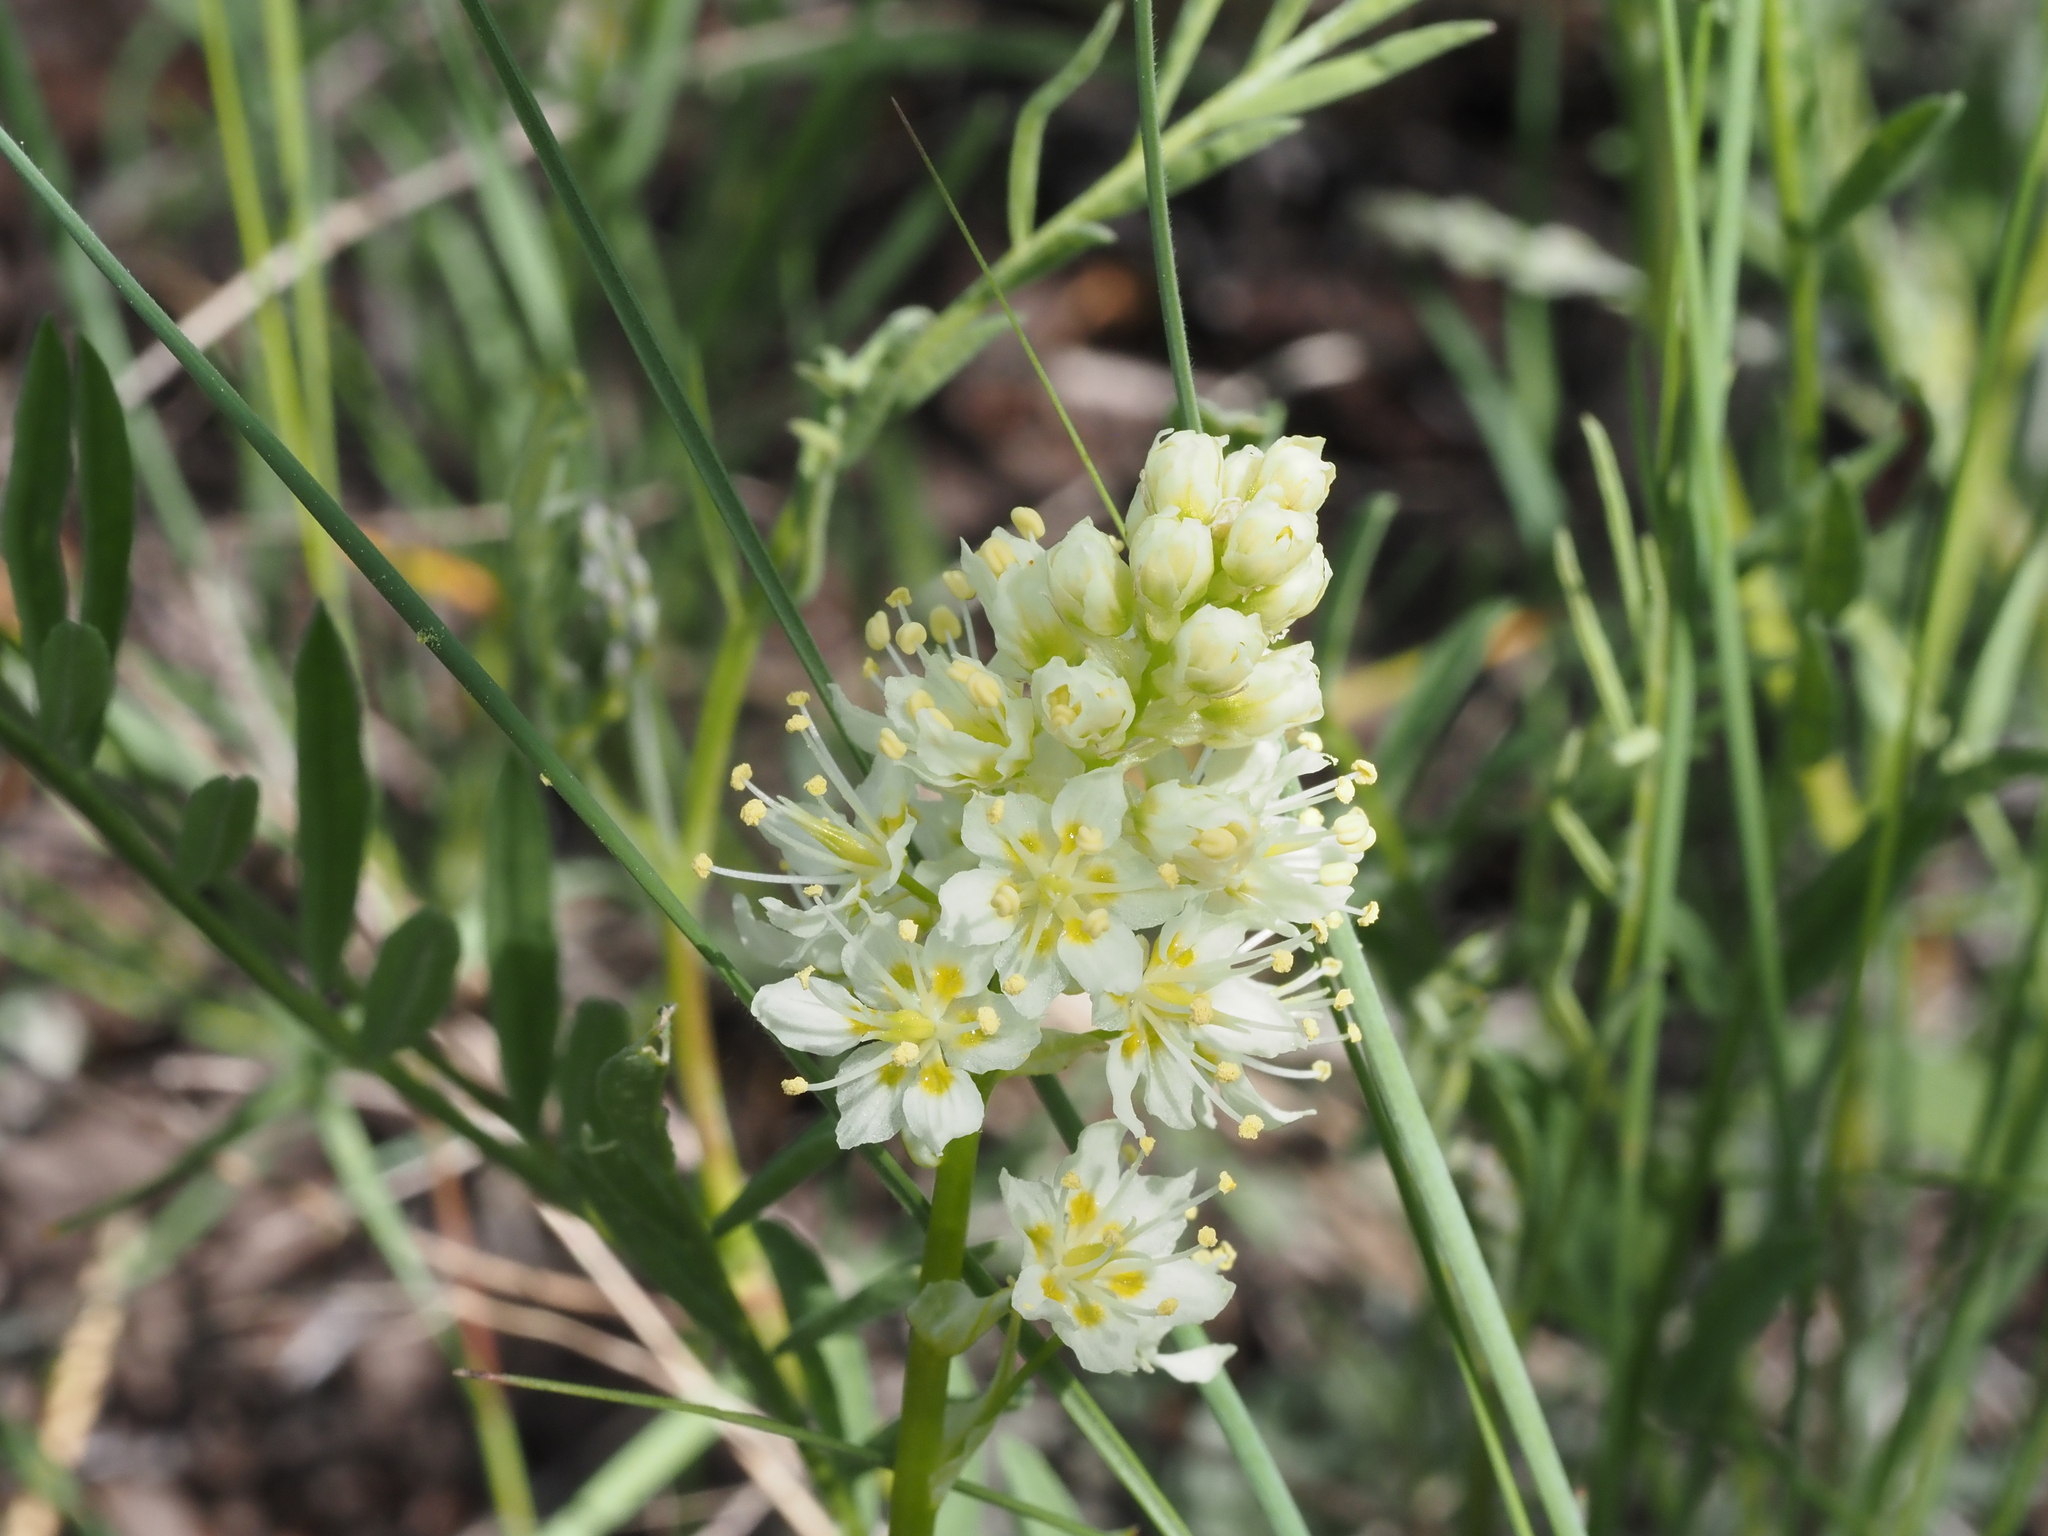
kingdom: Plantae
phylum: Tracheophyta
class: Liliopsida
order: Liliales
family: Melanthiaceae
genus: Toxicoscordion
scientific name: Toxicoscordion venenosum
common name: Meadow death camas
